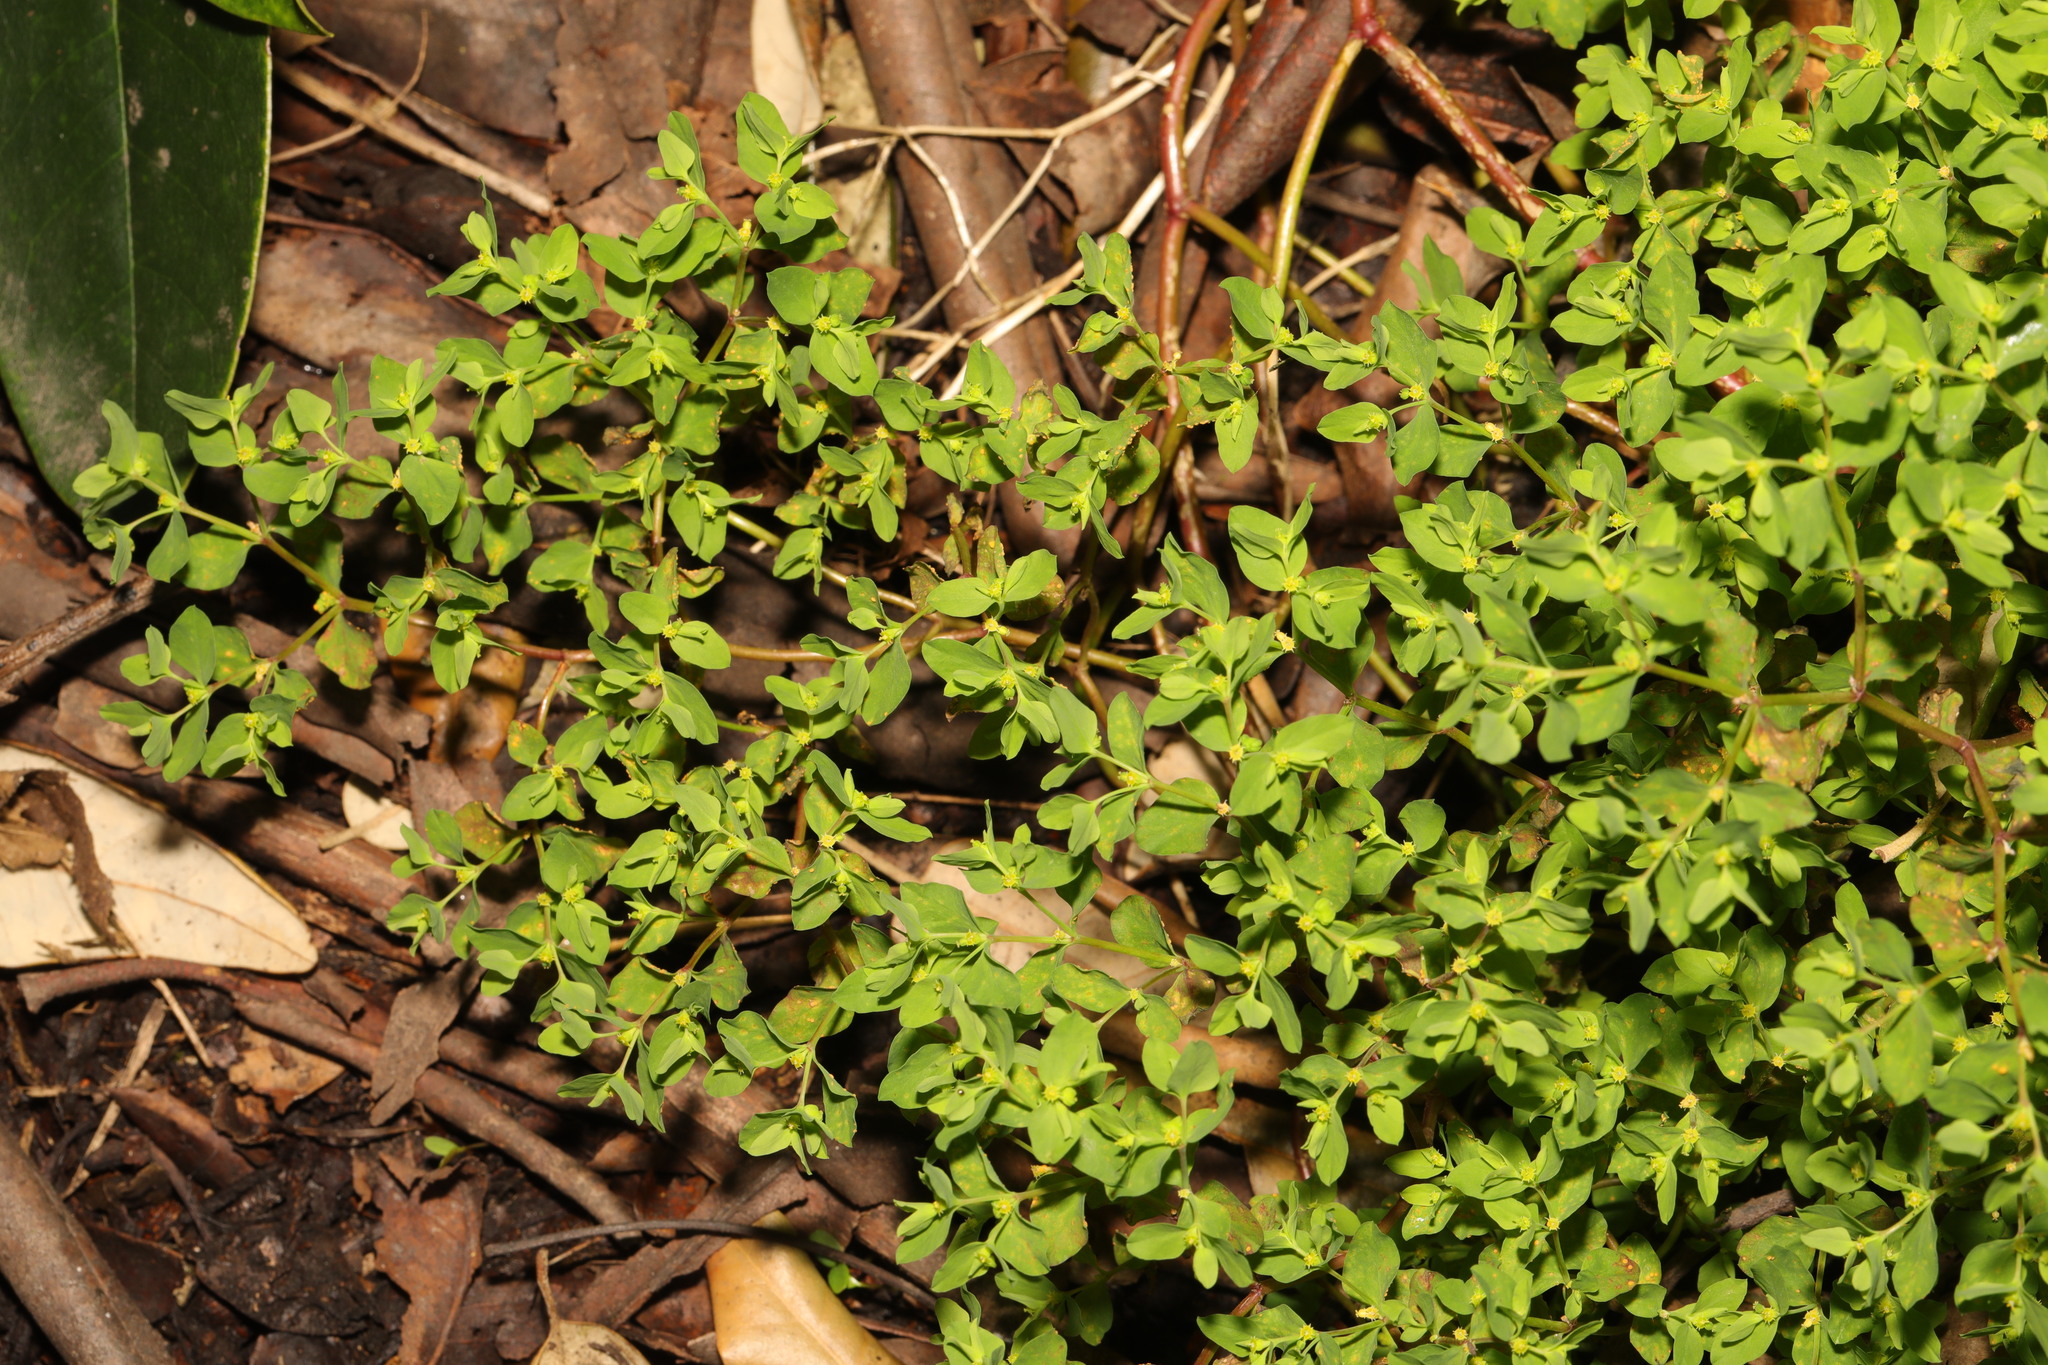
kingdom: Plantae
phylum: Tracheophyta
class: Magnoliopsida
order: Malpighiales
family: Euphorbiaceae
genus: Euphorbia
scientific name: Euphorbia peplus
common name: Petty spurge
